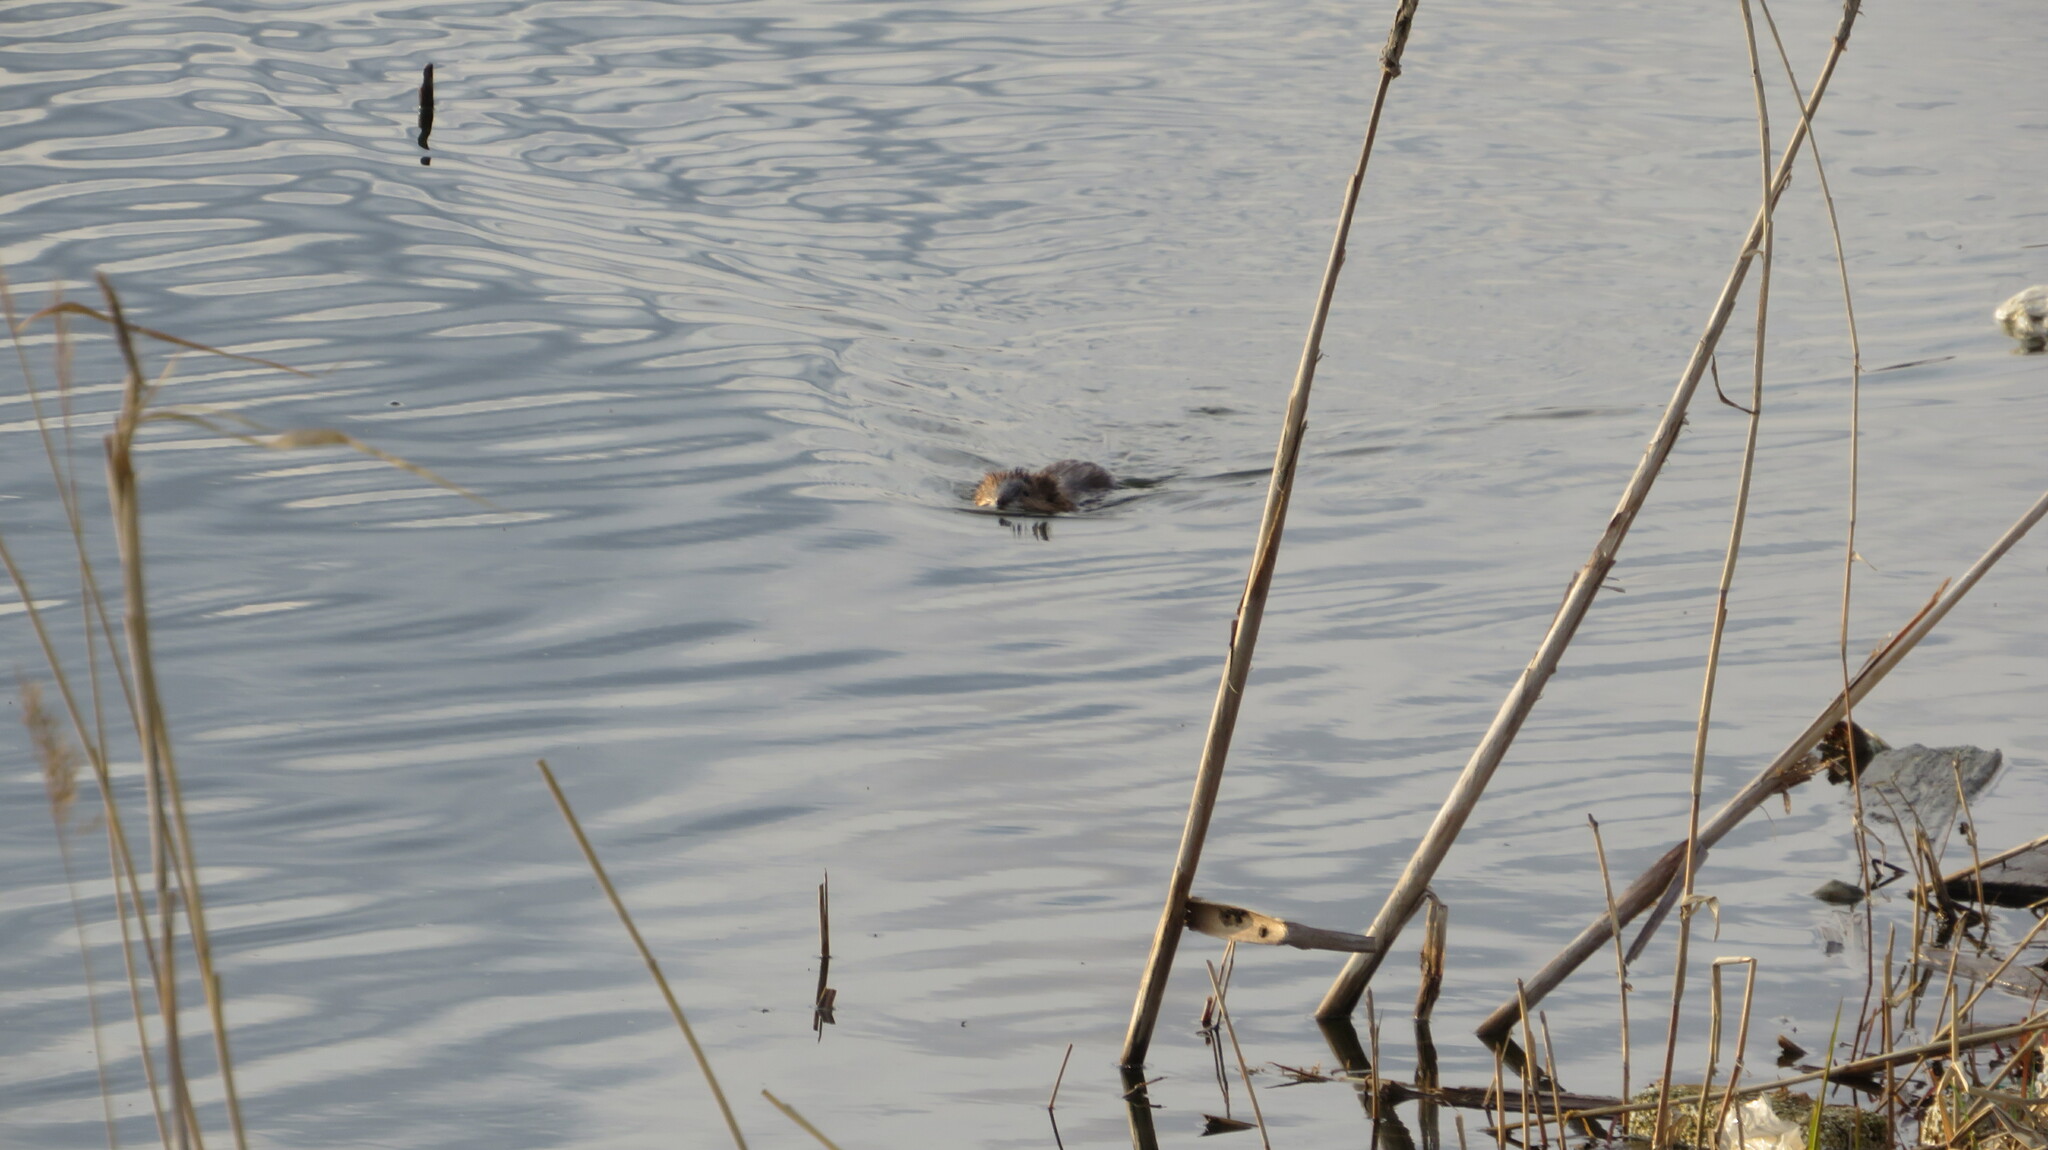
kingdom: Animalia
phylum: Chordata
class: Mammalia
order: Rodentia
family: Cricetidae
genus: Ondatra
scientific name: Ondatra zibethicus
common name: Muskrat
